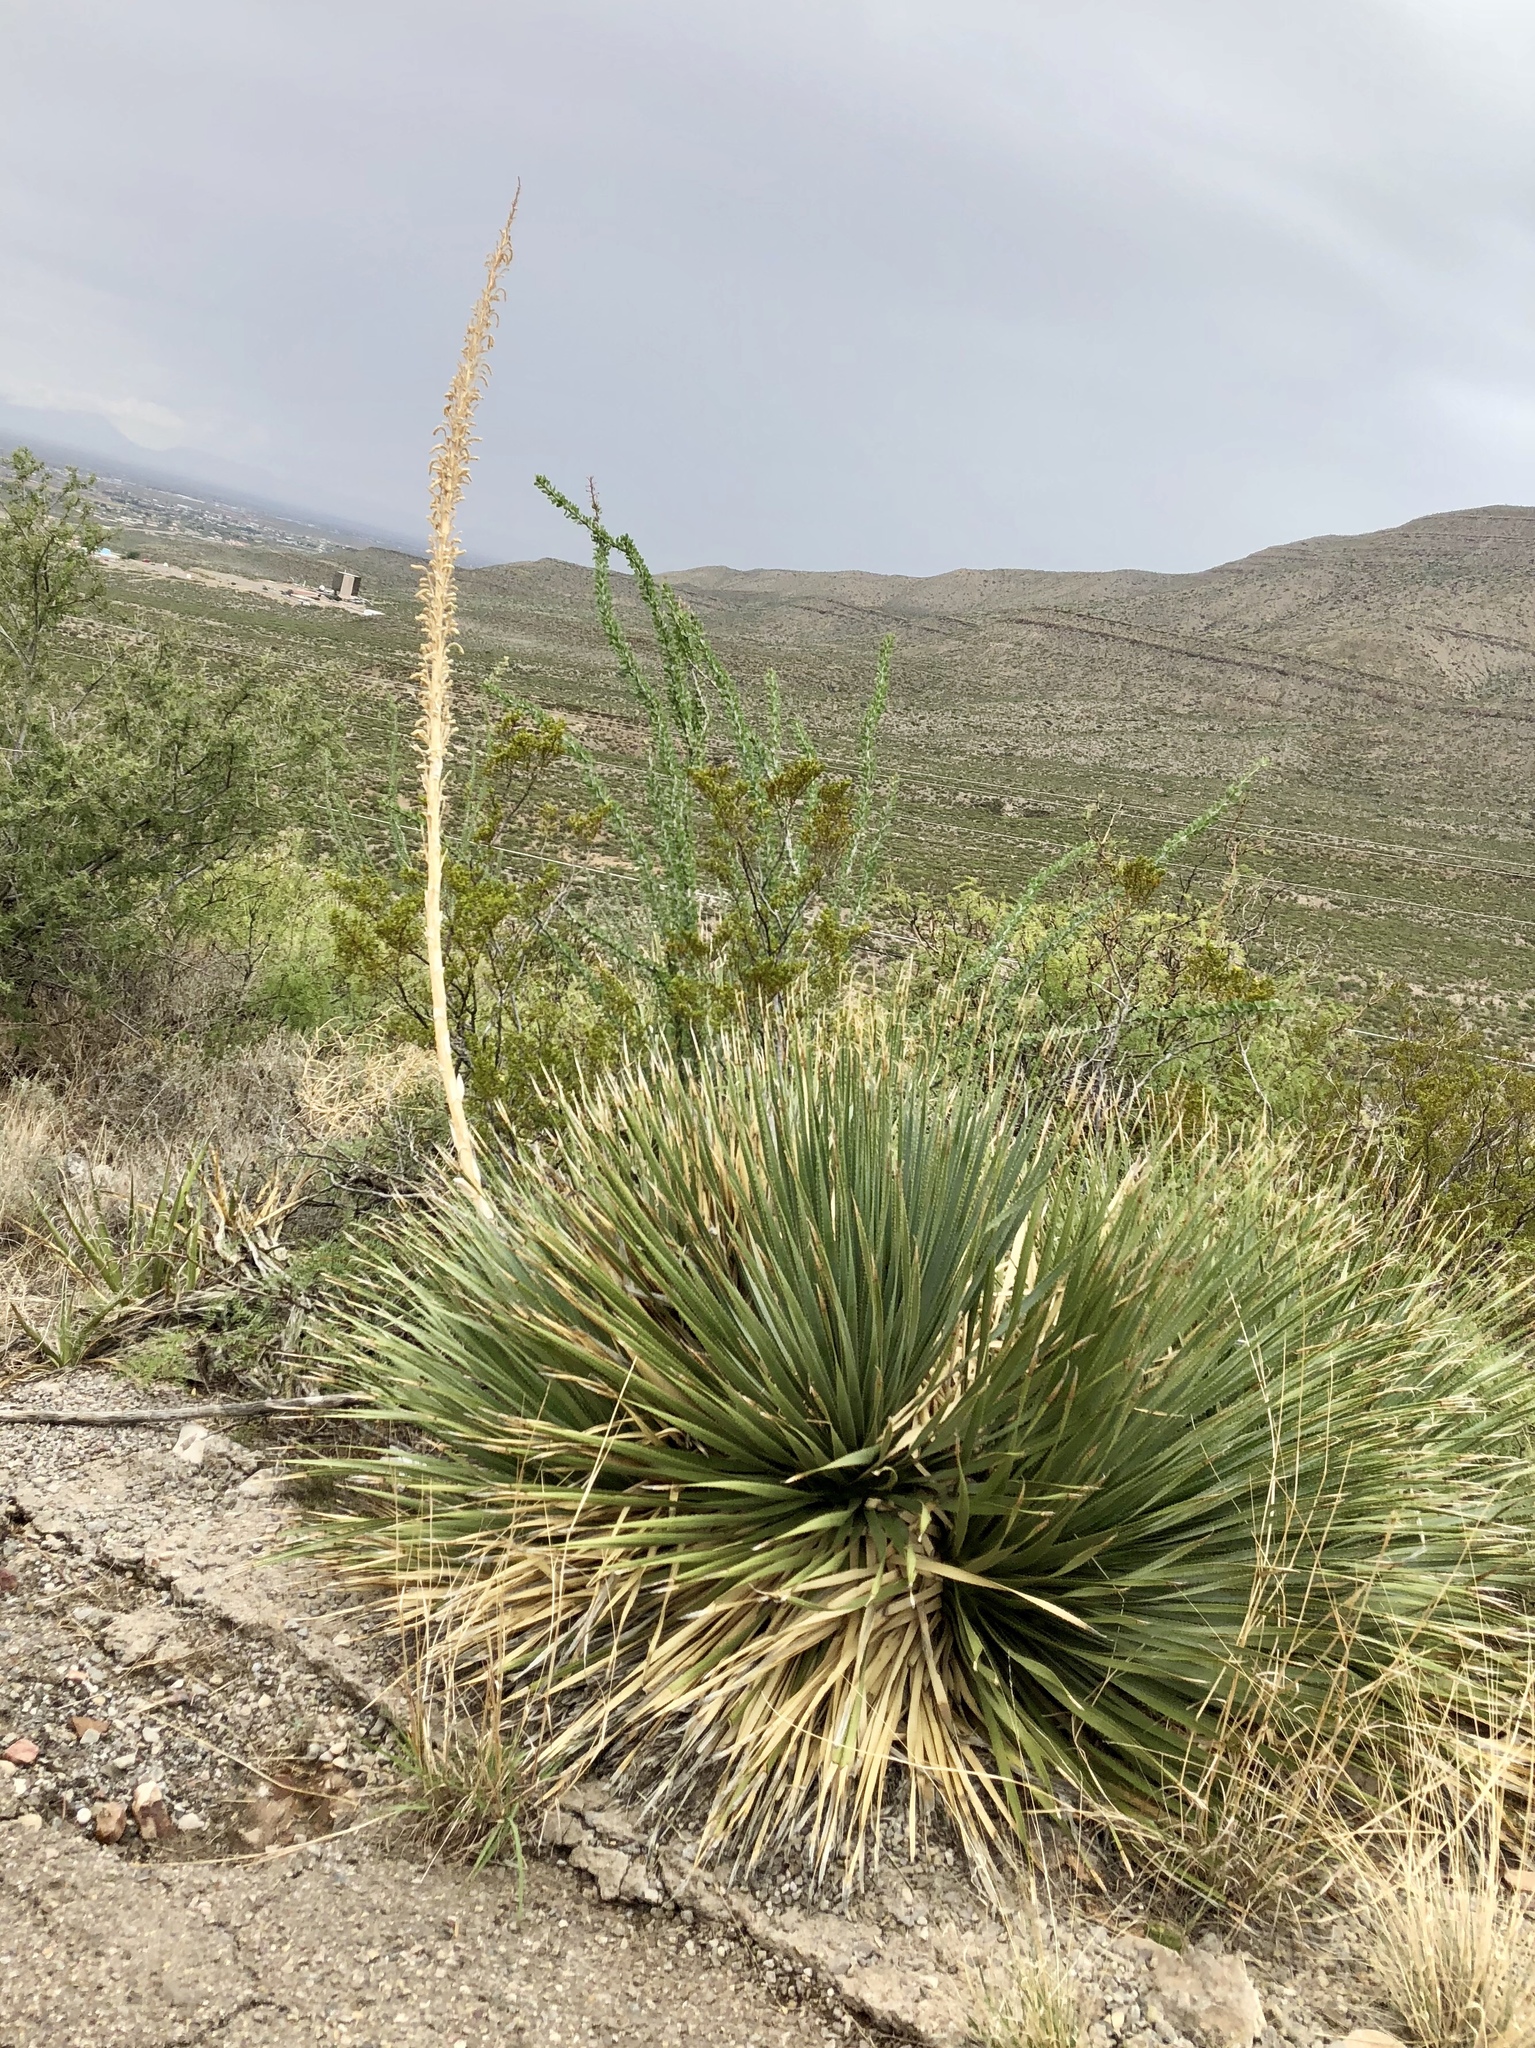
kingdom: Plantae
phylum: Tracheophyta
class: Liliopsida
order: Asparagales
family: Asparagaceae
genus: Dasylirion
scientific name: Dasylirion wheeleri
